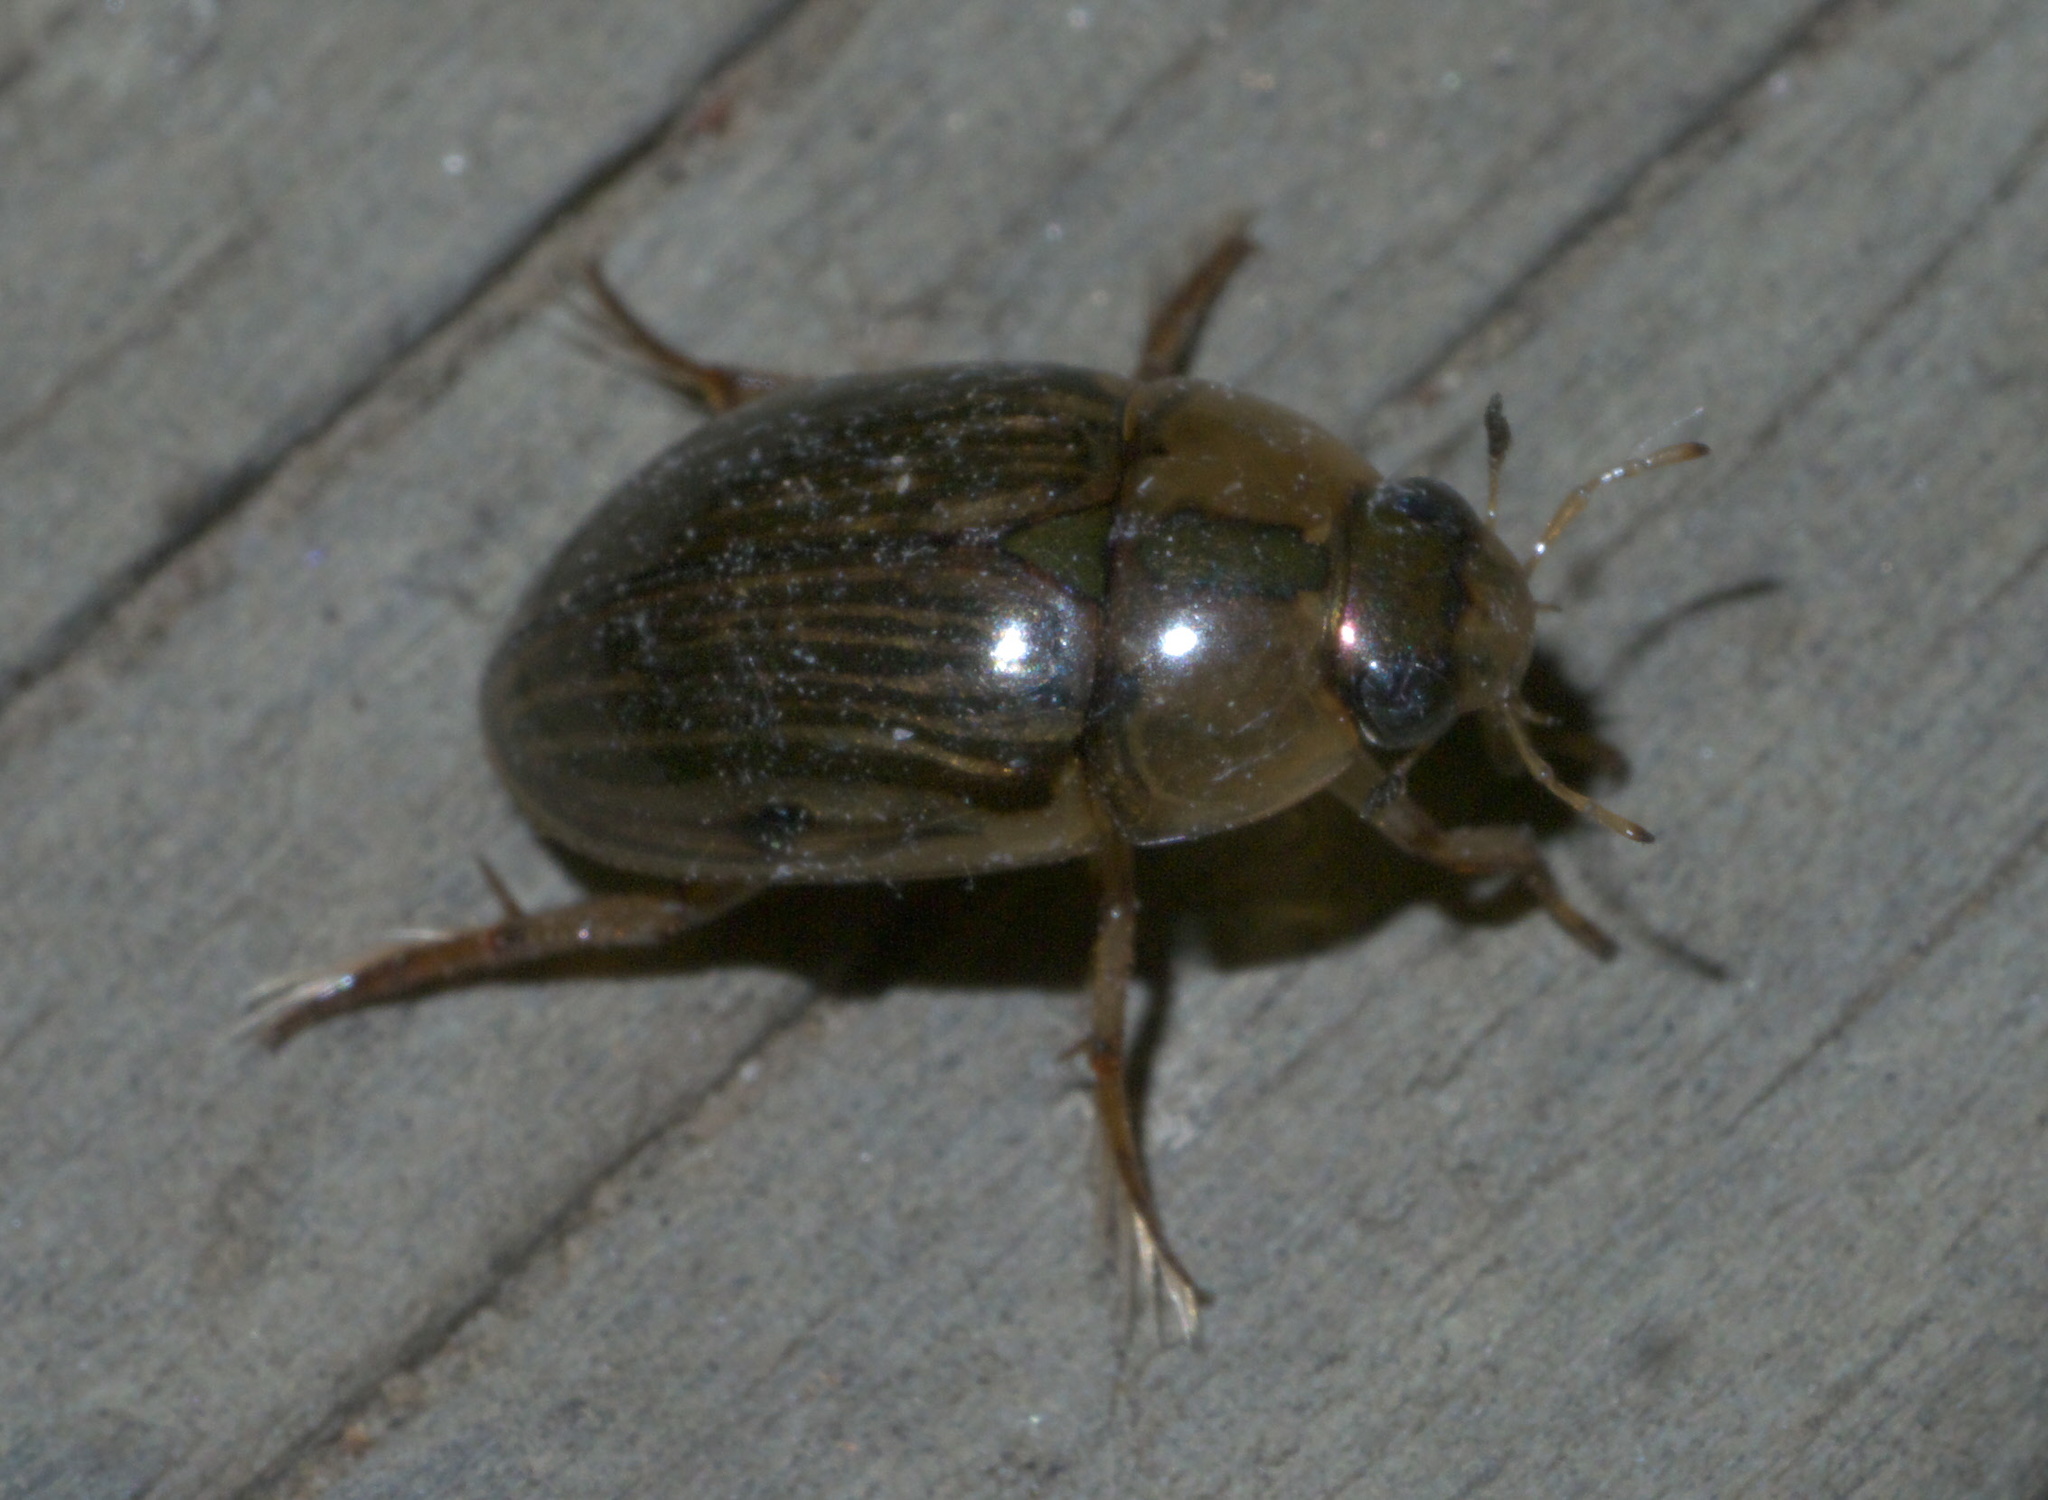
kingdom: Animalia
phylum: Arthropoda
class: Insecta
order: Coleoptera
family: Hydrophilidae
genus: Tropisternus
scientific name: Tropisternus collaris
